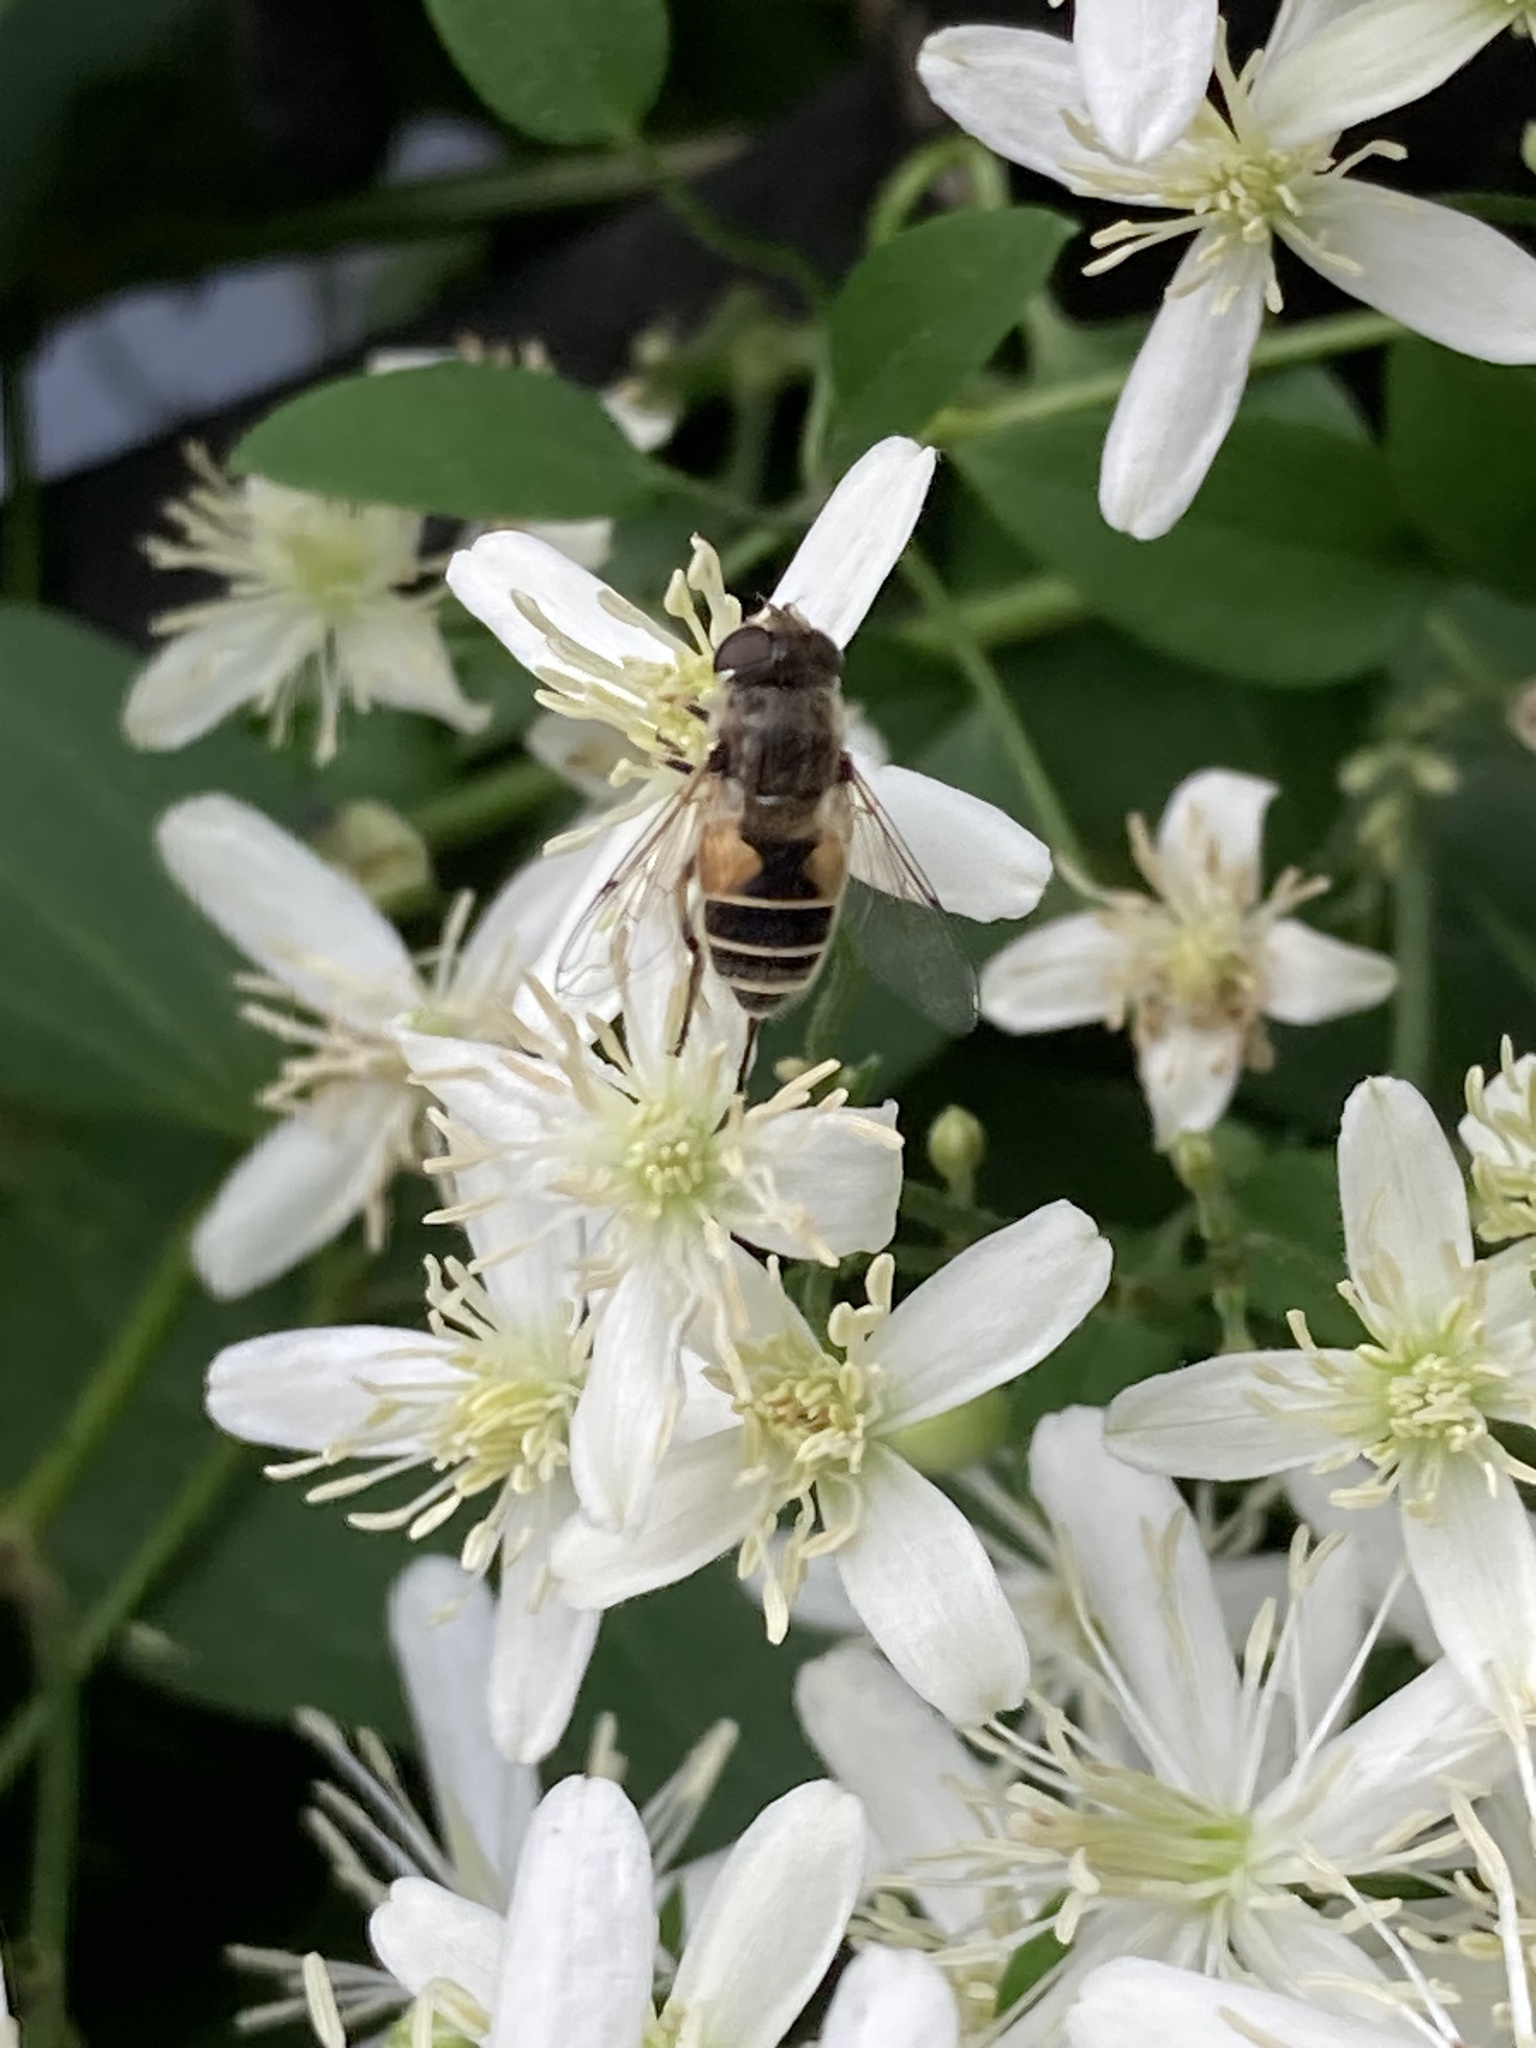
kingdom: Animalia
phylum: Arthropoda
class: Insecta
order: Diptera
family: Syrphidae
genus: Eristalis
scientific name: Eristalis arbustorum
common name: Hover fly
